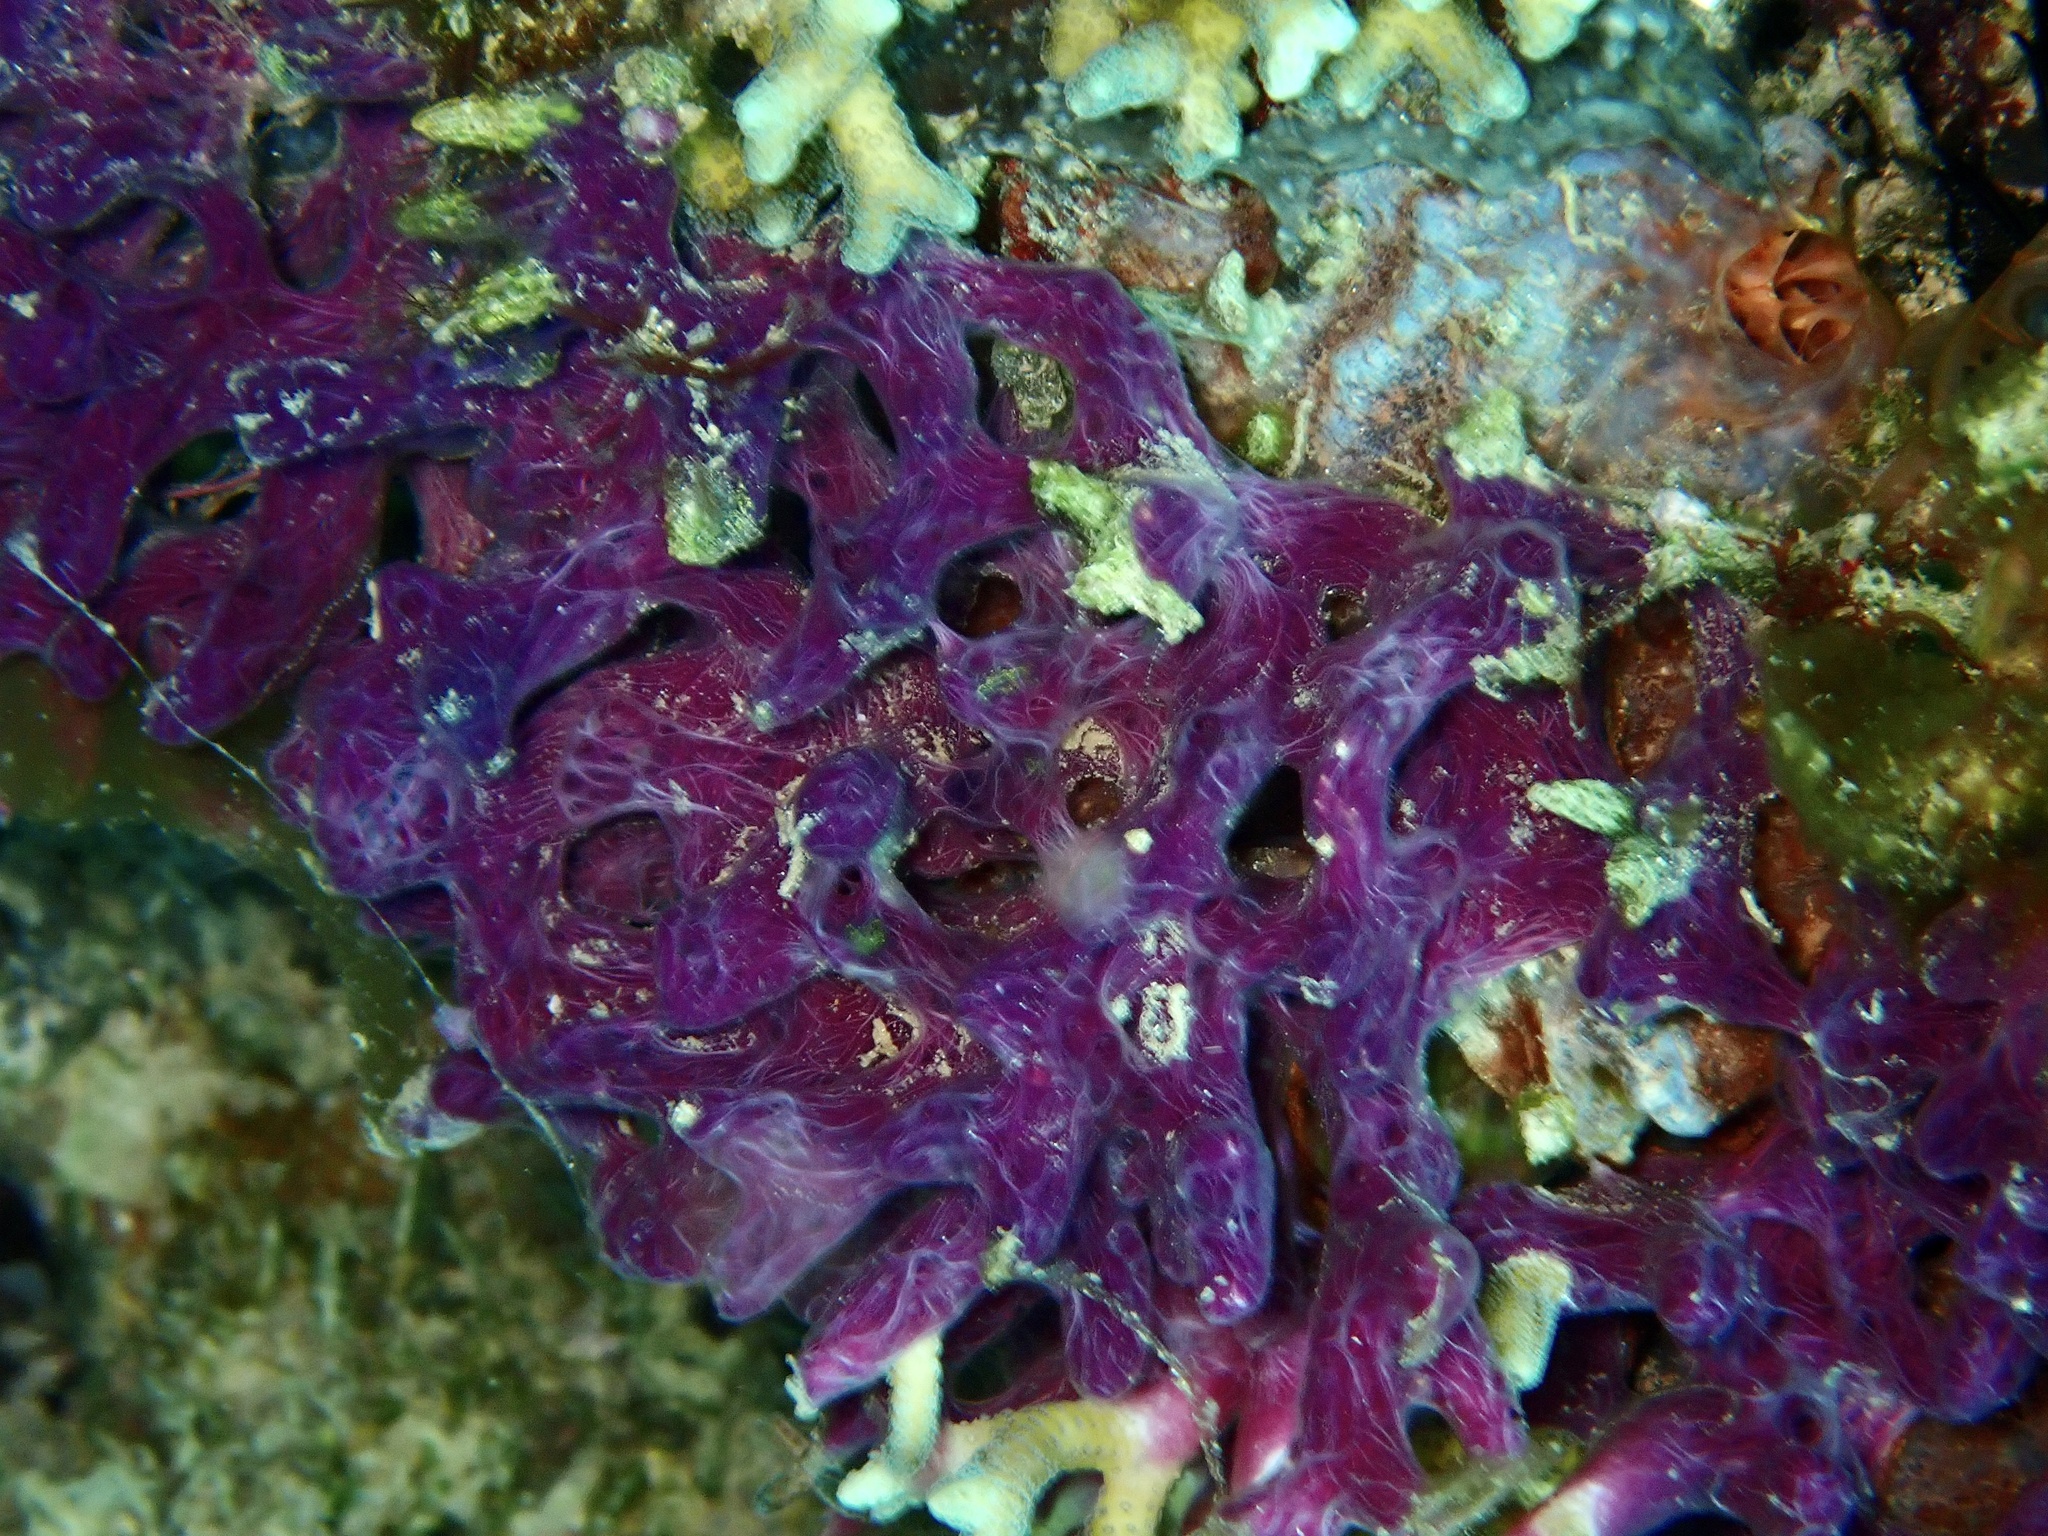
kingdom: Animalia
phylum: Porifera
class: Demospongiae
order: Haplosclerida
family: Chalinidae
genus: Chalinula
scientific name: Chalinula nematifera
